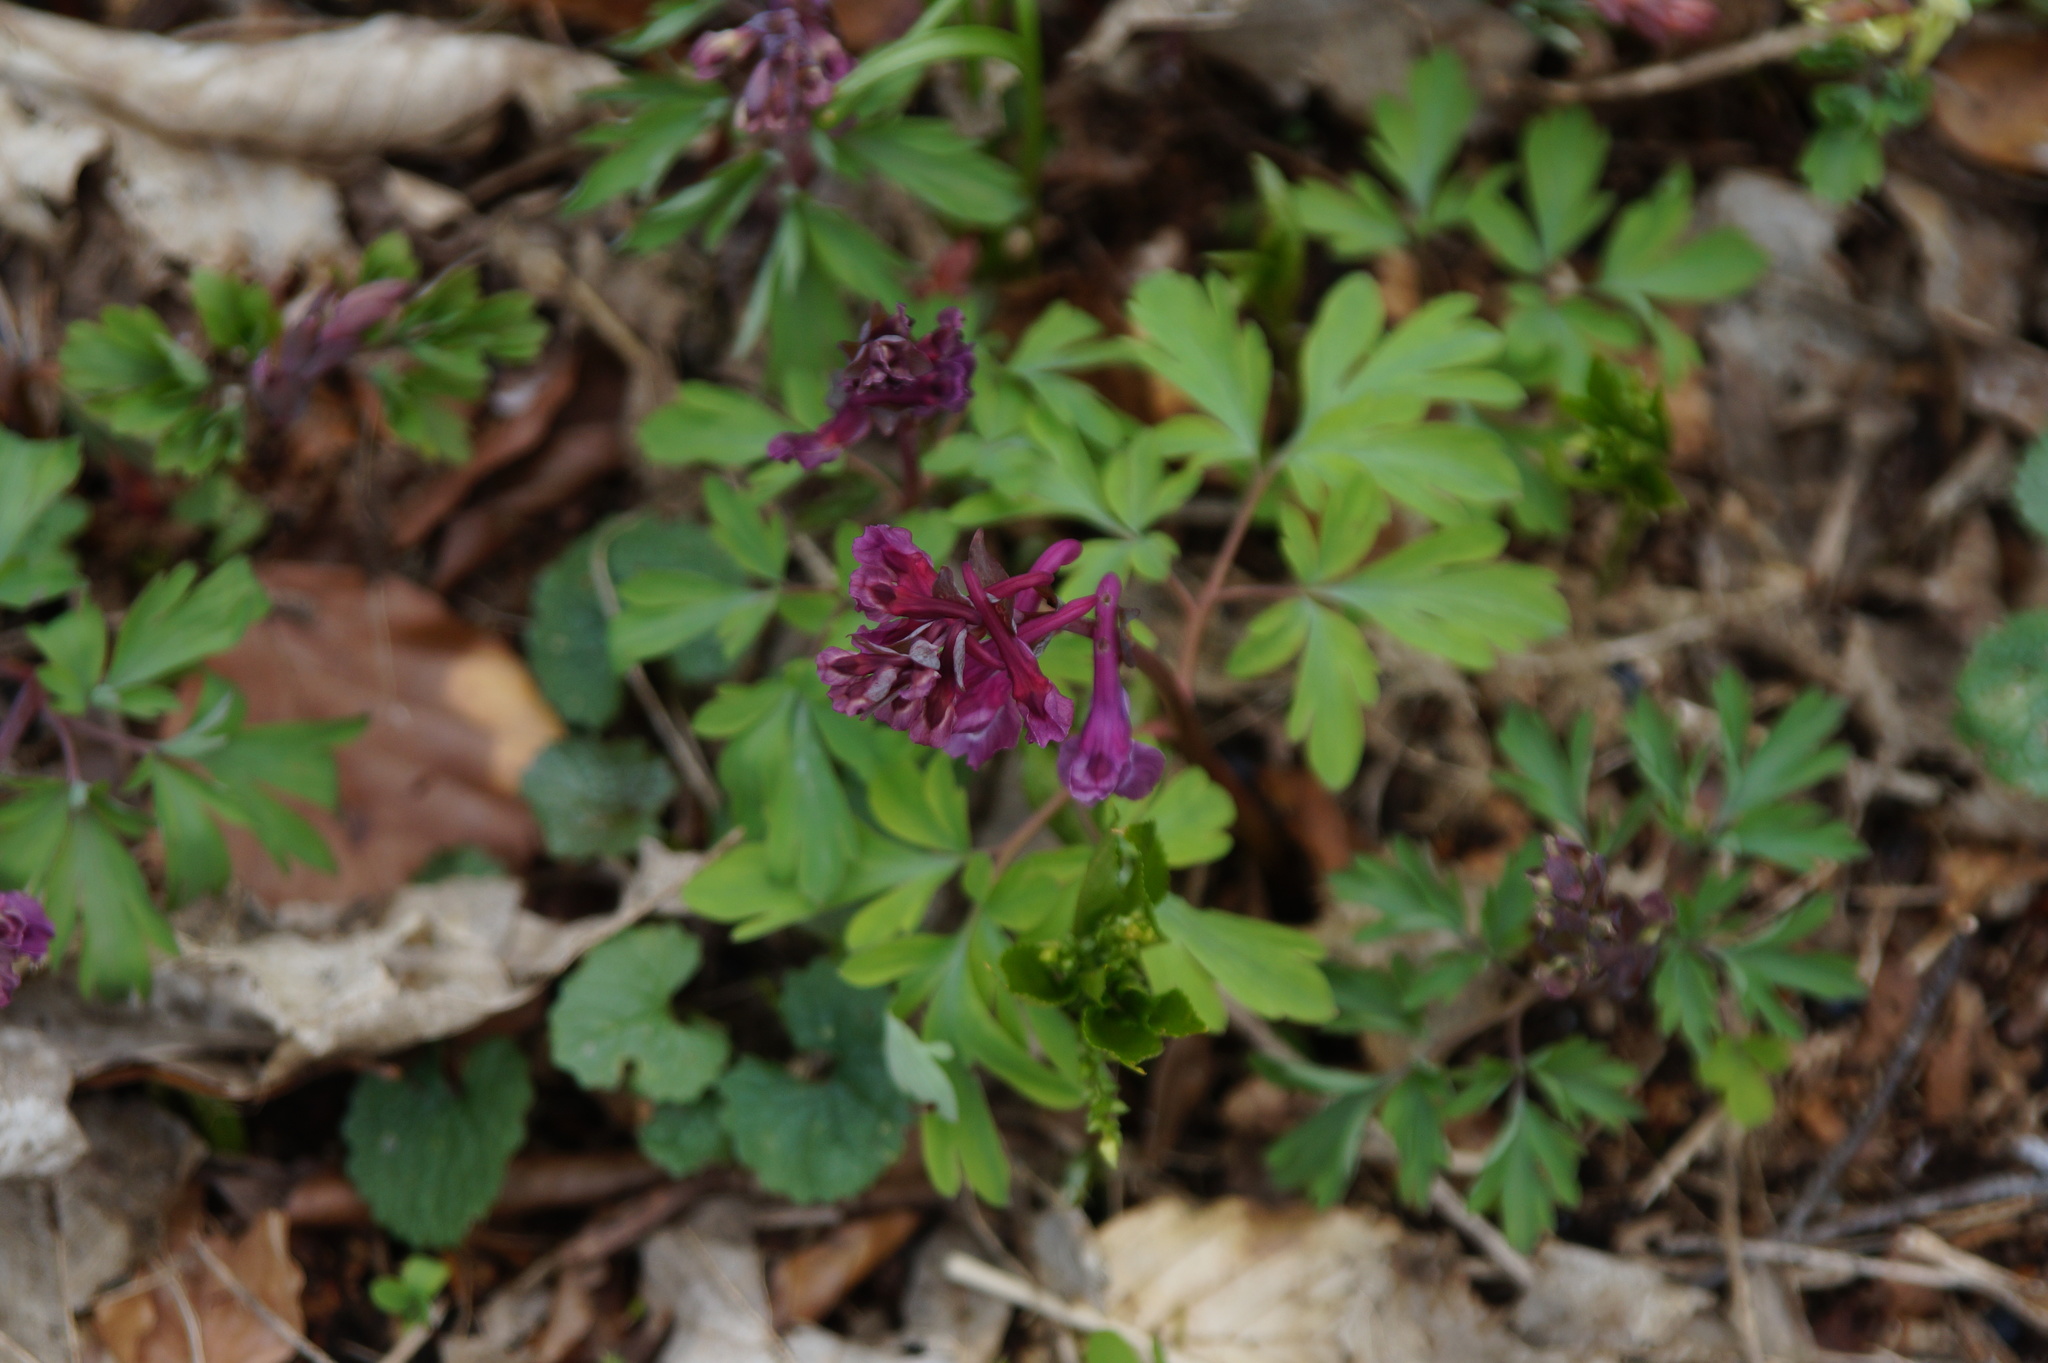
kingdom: Plantae
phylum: Tracheophyta
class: Magnoliopsida
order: Ranunculales
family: Papaveraceae
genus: Corydalis
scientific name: Corydalis cava
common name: Hollowroot
